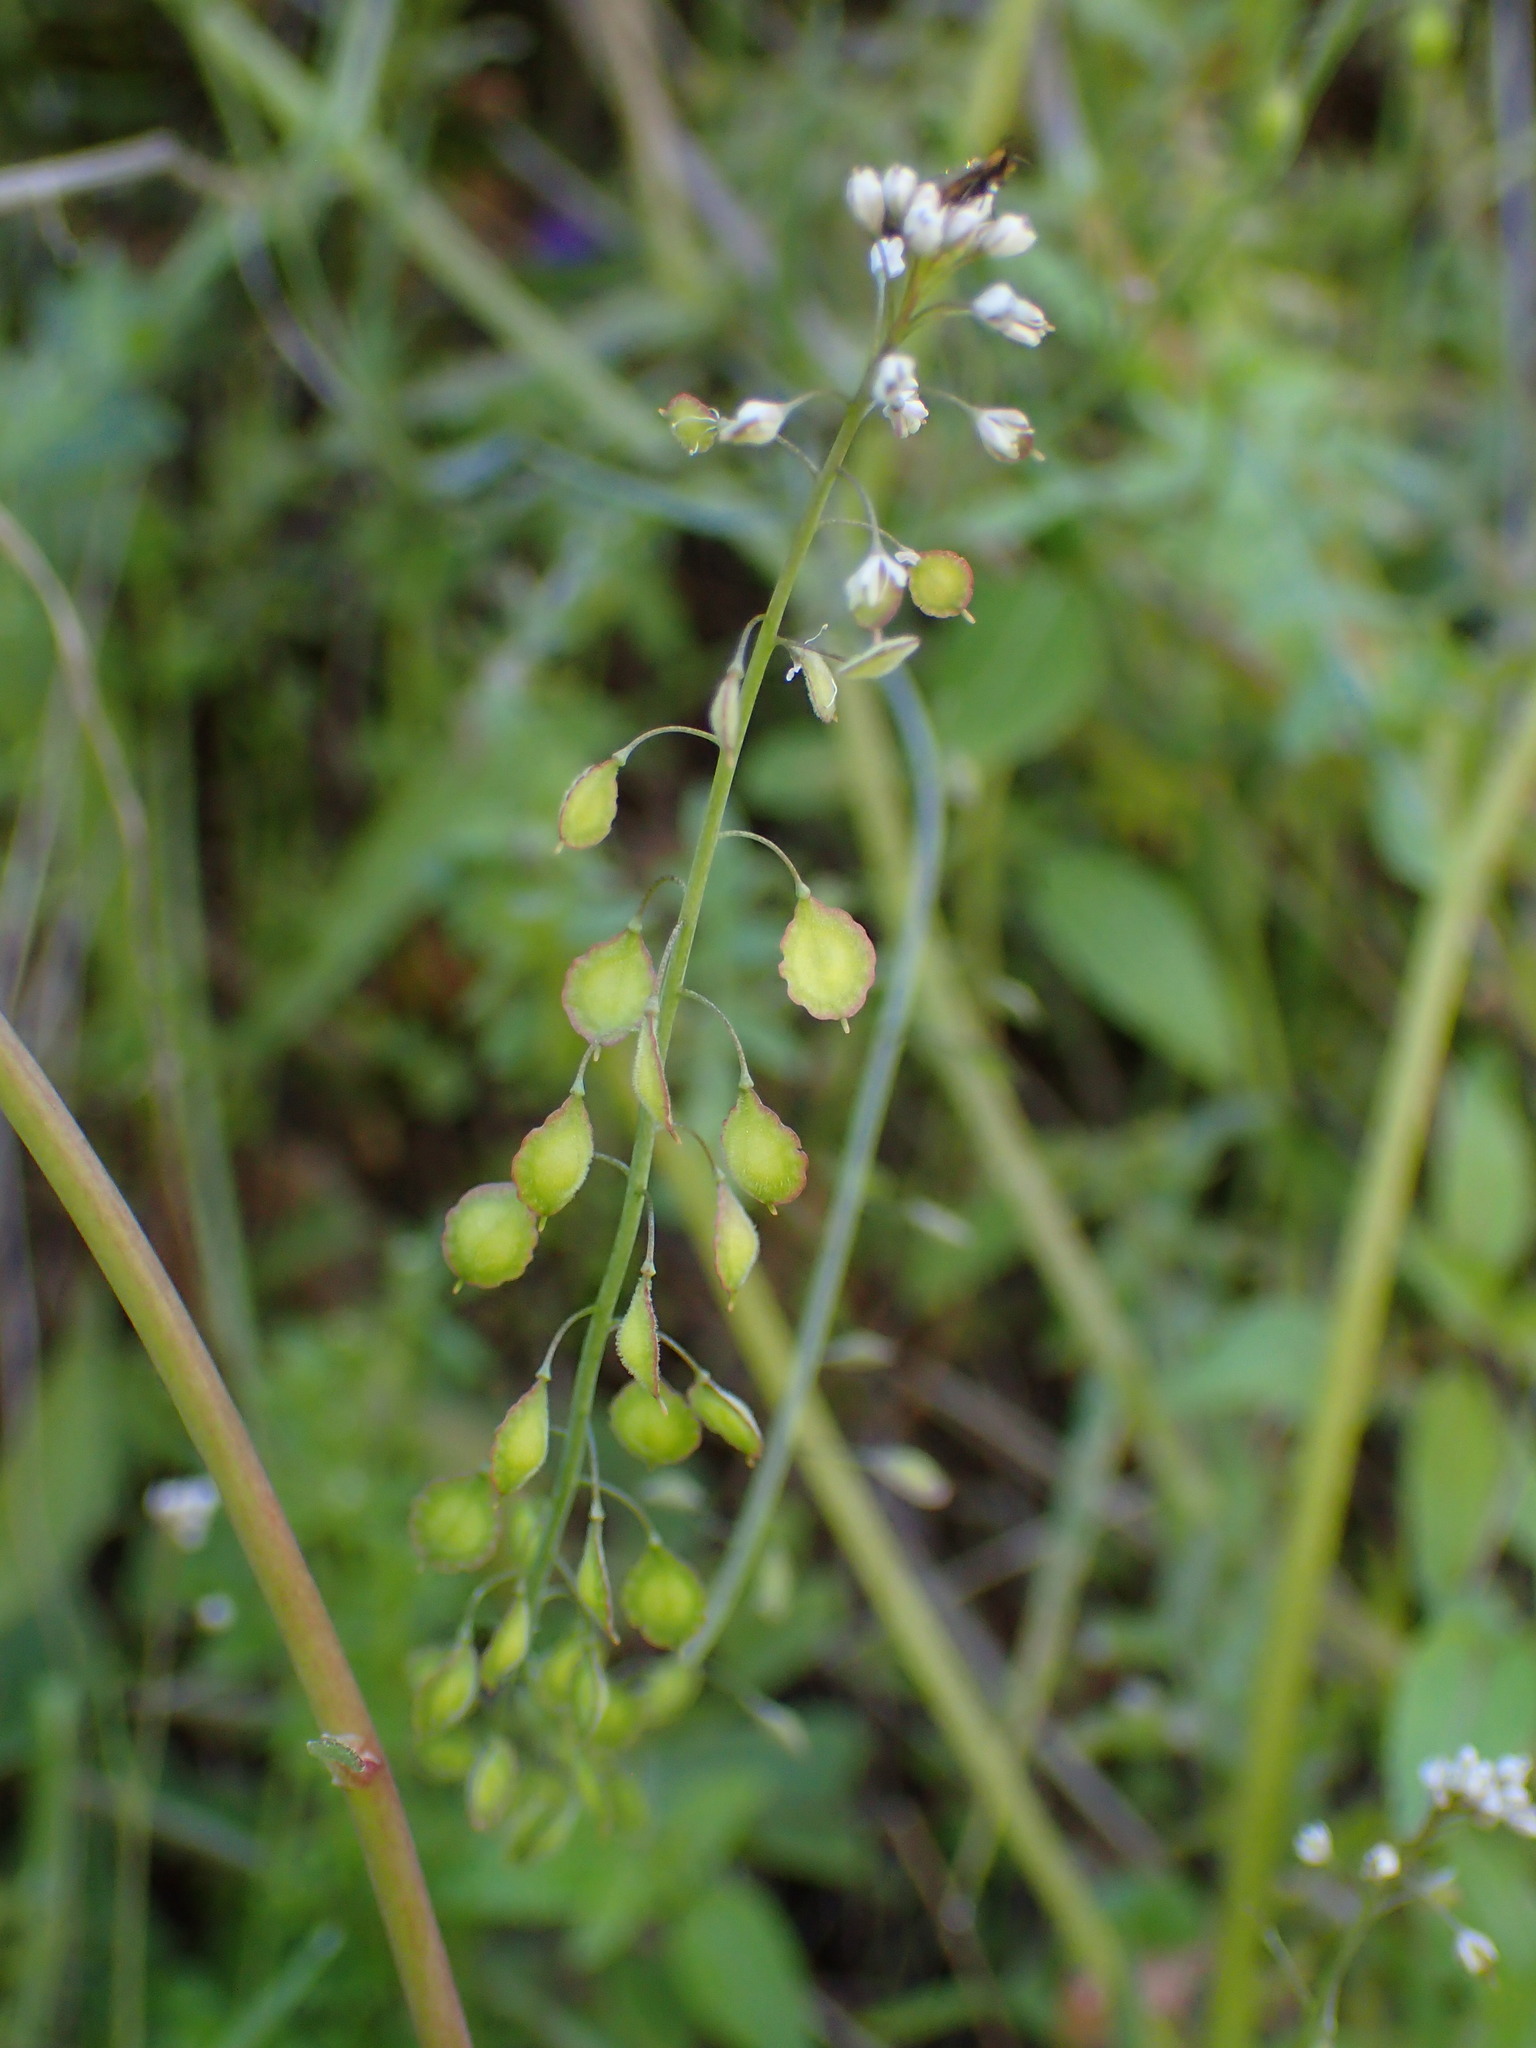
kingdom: Plantae
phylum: Tracheophyta
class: Magnoliopsida
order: Brassicales
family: Brassicaceae
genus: Thysanocarpus
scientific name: Thysanocarpus curvipes
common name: Sand fringepod
